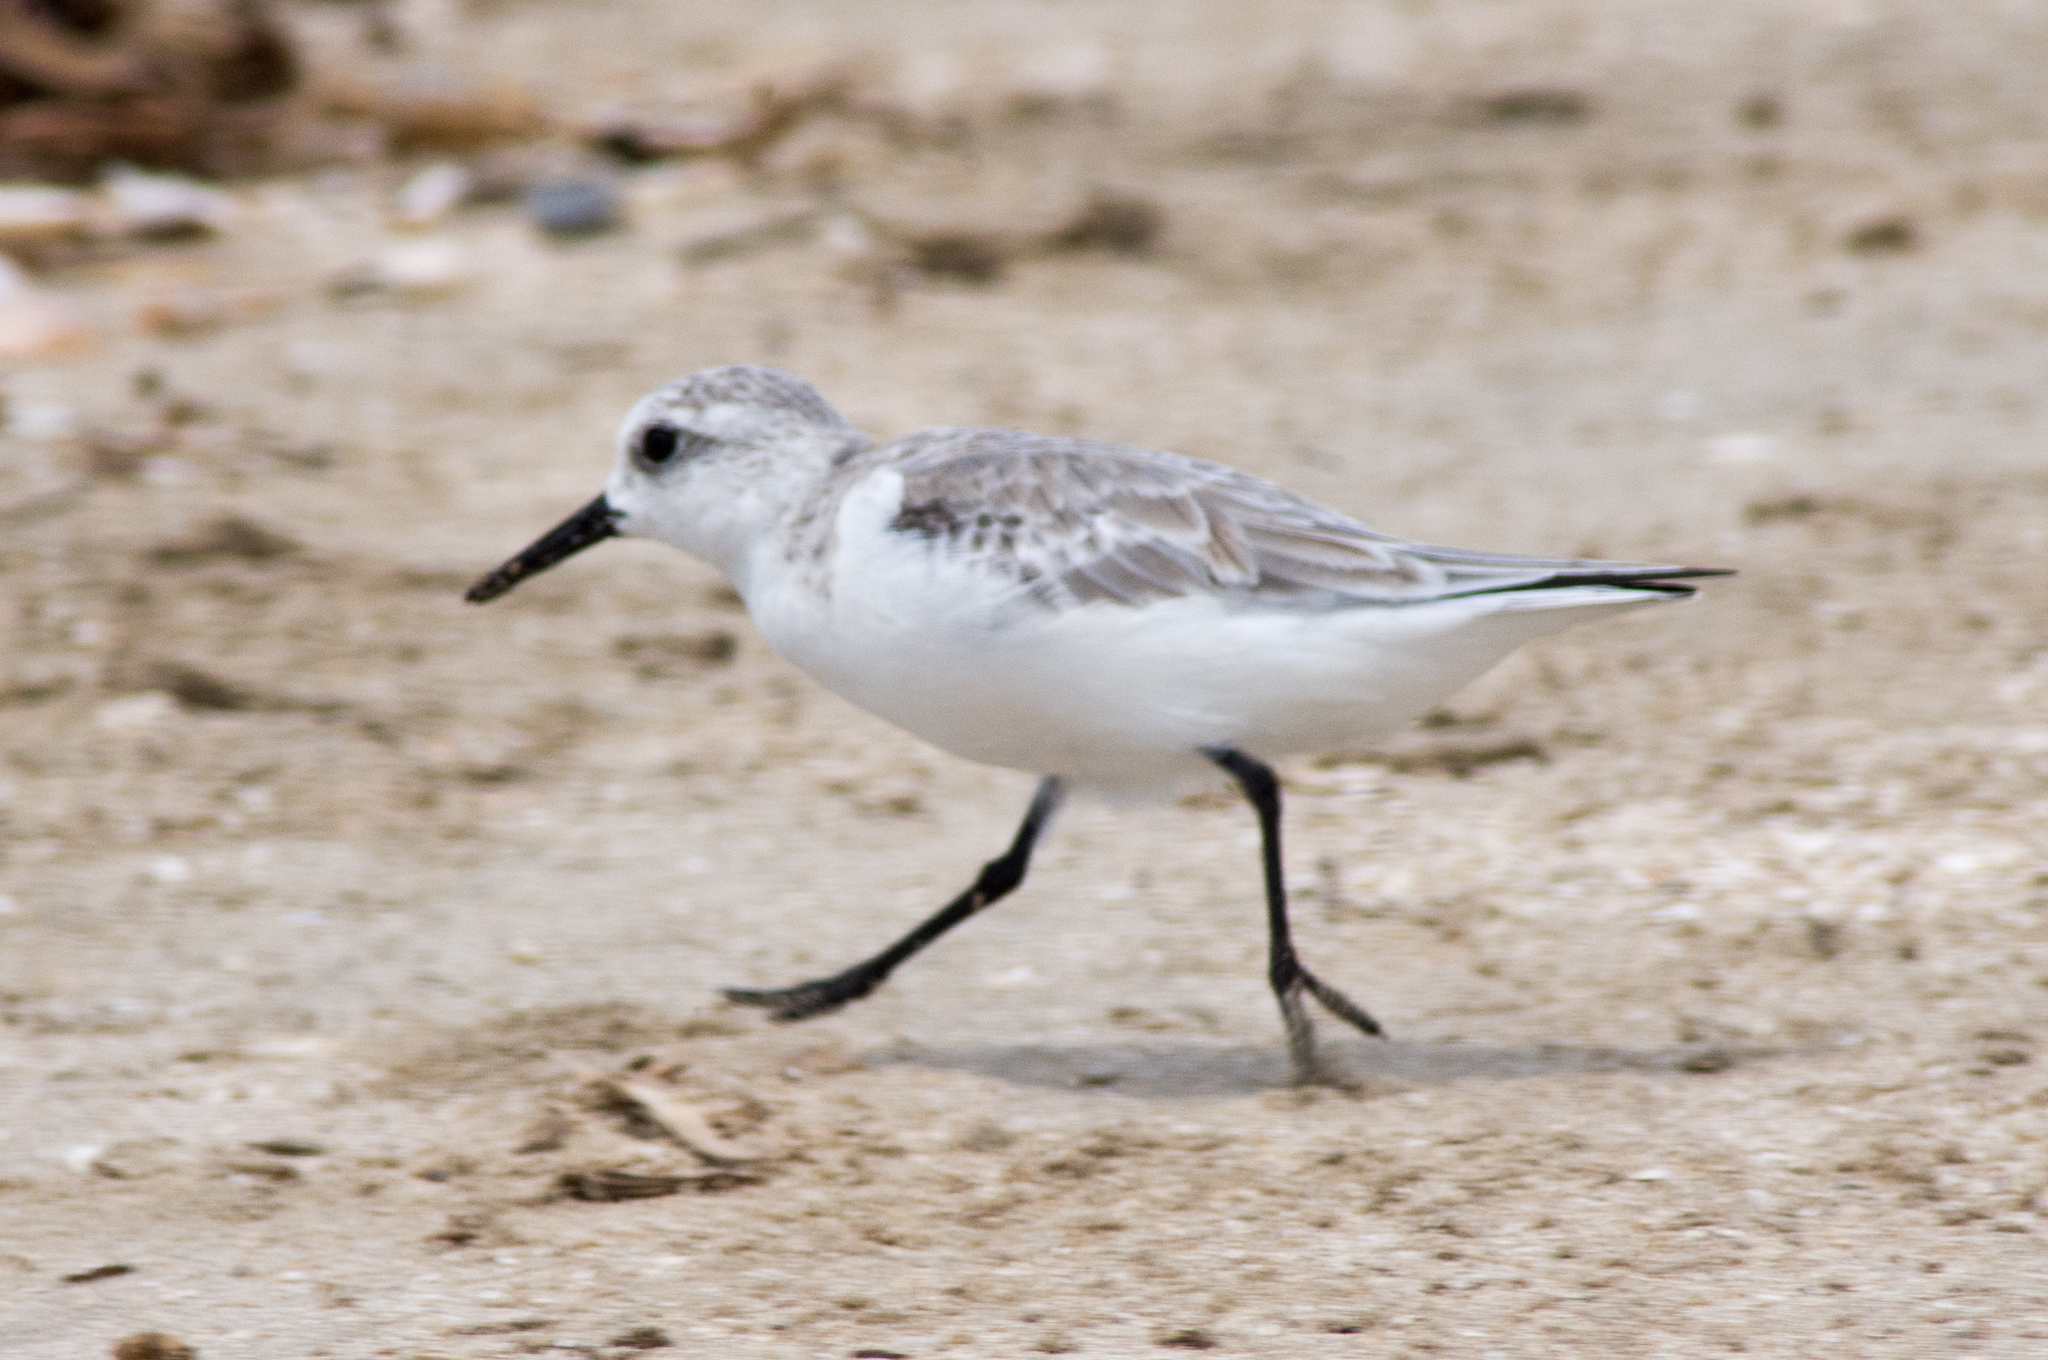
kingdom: Animalia
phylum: Chordata
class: Aves
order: Charadriiformes
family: Scolopacidae
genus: Calidris
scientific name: Calidris alba
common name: Sanderling
